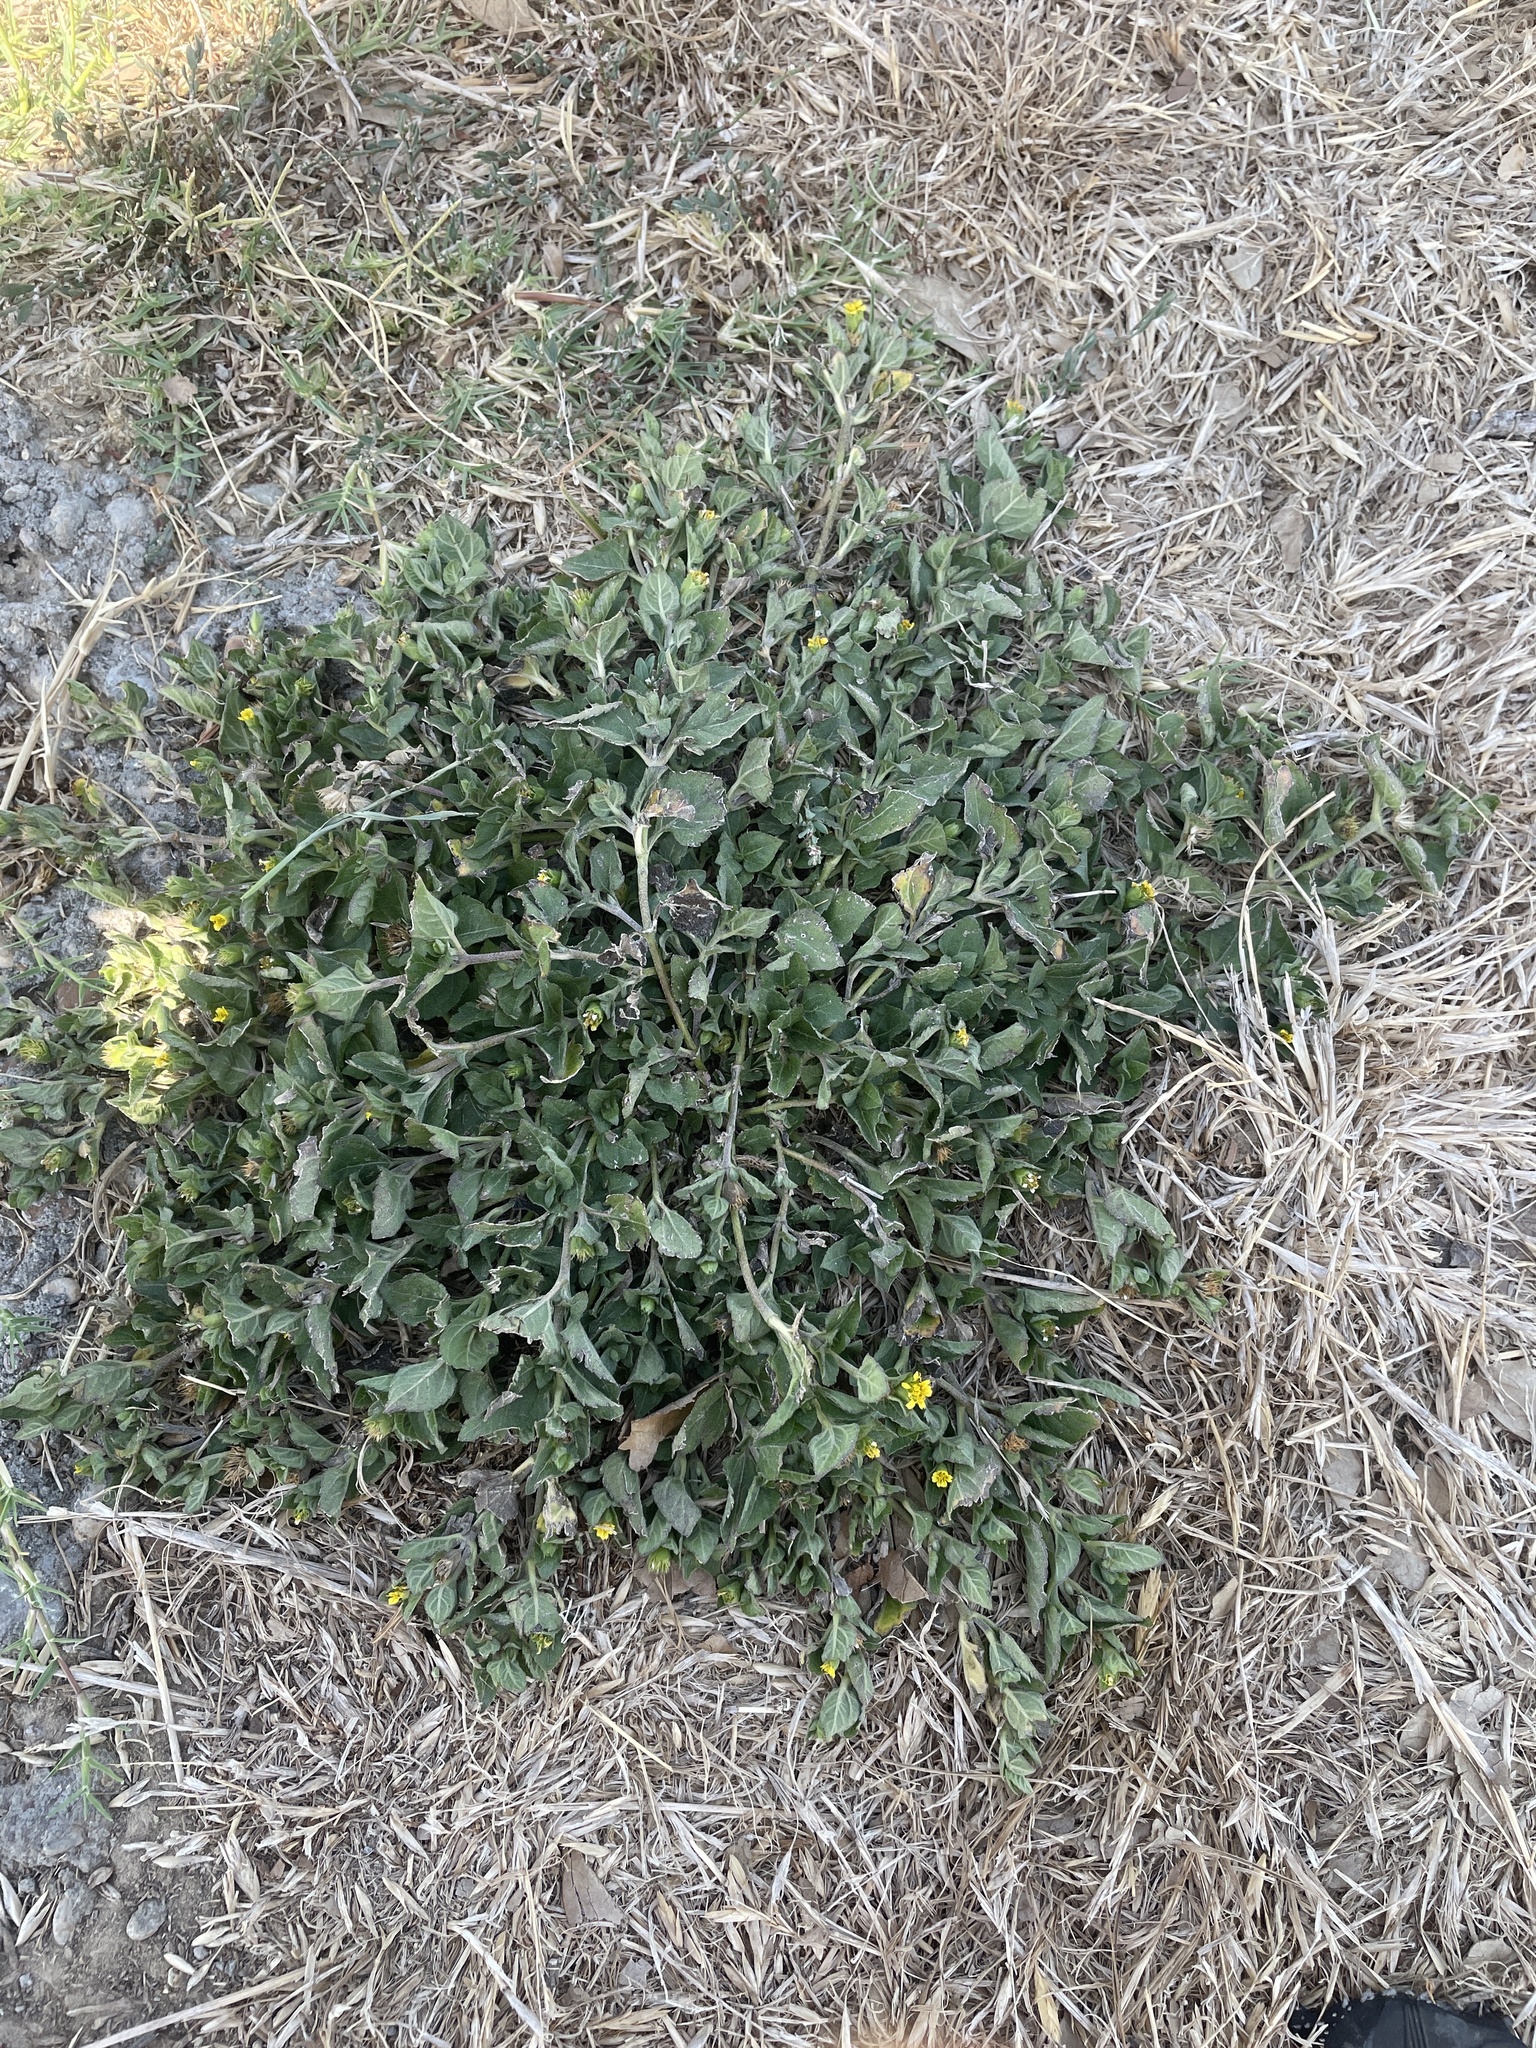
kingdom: Plantae
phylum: Tracheophyta
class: Magnoliopsida
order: Asterales
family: Asteraceae
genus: Calyptocarpus
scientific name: Calyptocarpus vialis
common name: Straggler daisy
